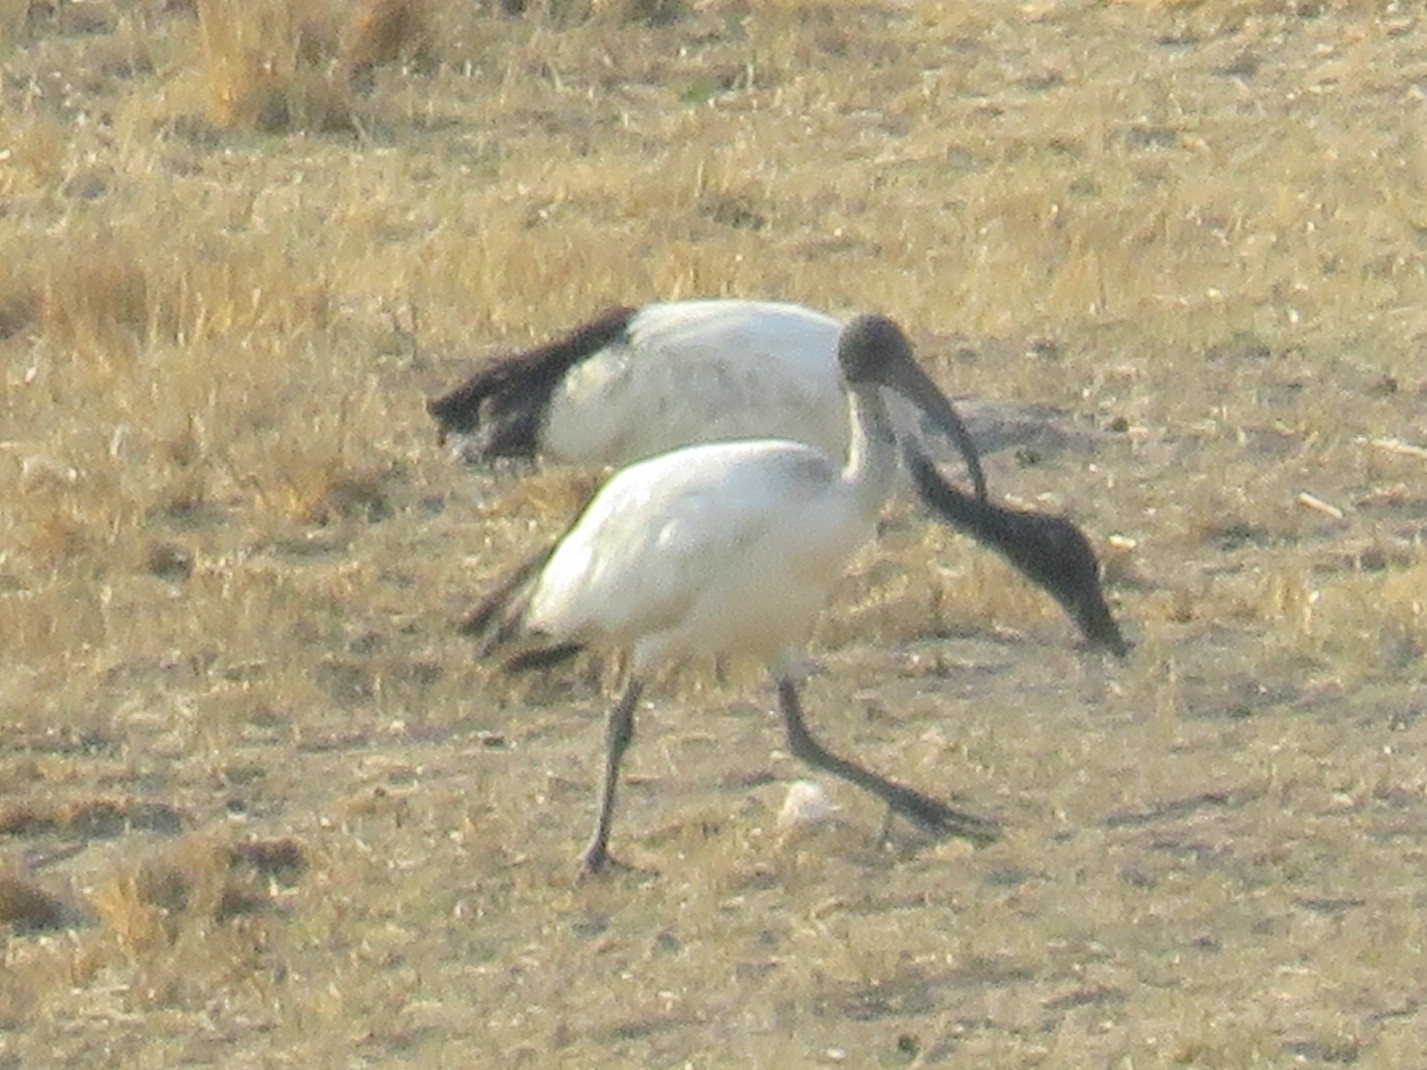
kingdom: Animalia
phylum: Chordata
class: Aves
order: Pelecaniformes
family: Threskiornithidae
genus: Threskiornis
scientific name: Threskiornis aethiopicus
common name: Sacred ibis
